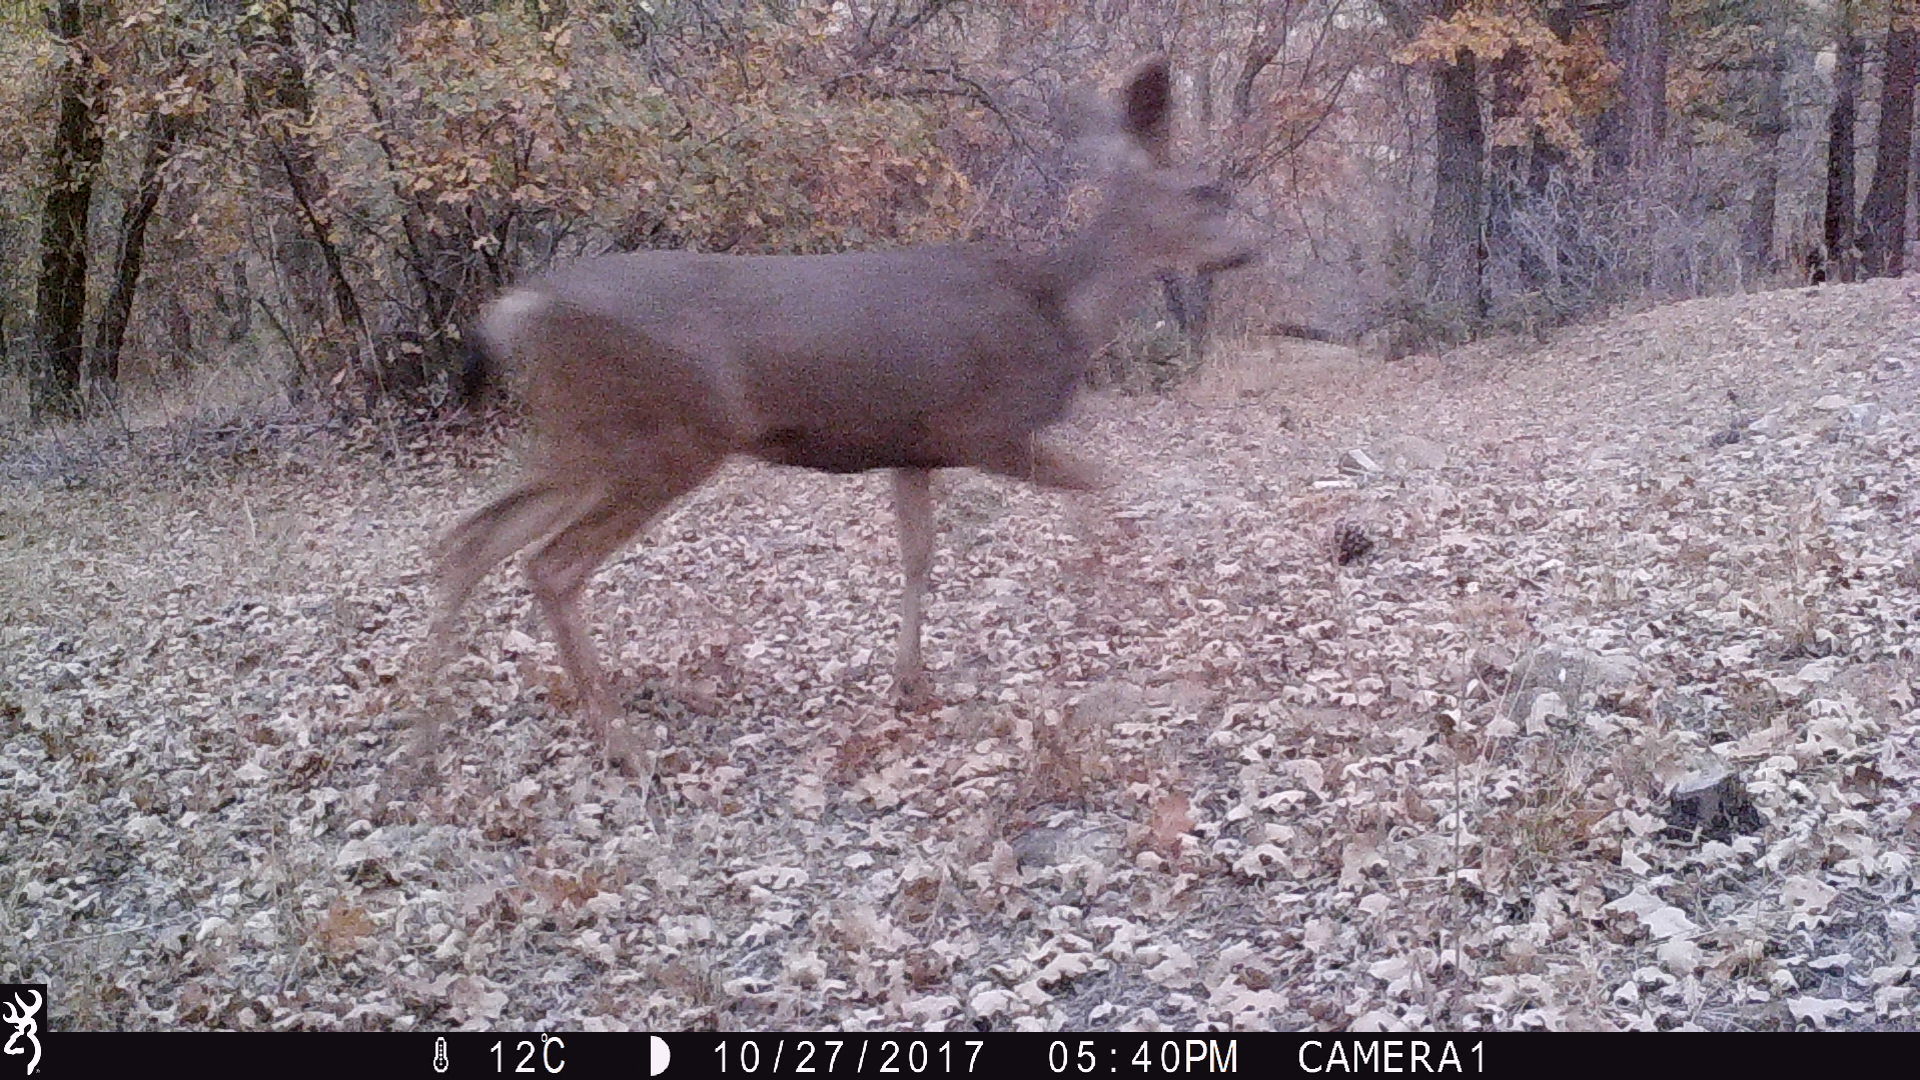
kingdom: Animalia
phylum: Chordata
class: Mammalia
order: Artiodactyla
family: Cervidae
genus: Odocoileus
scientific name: Odocoileus hemionus
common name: Mule deer
